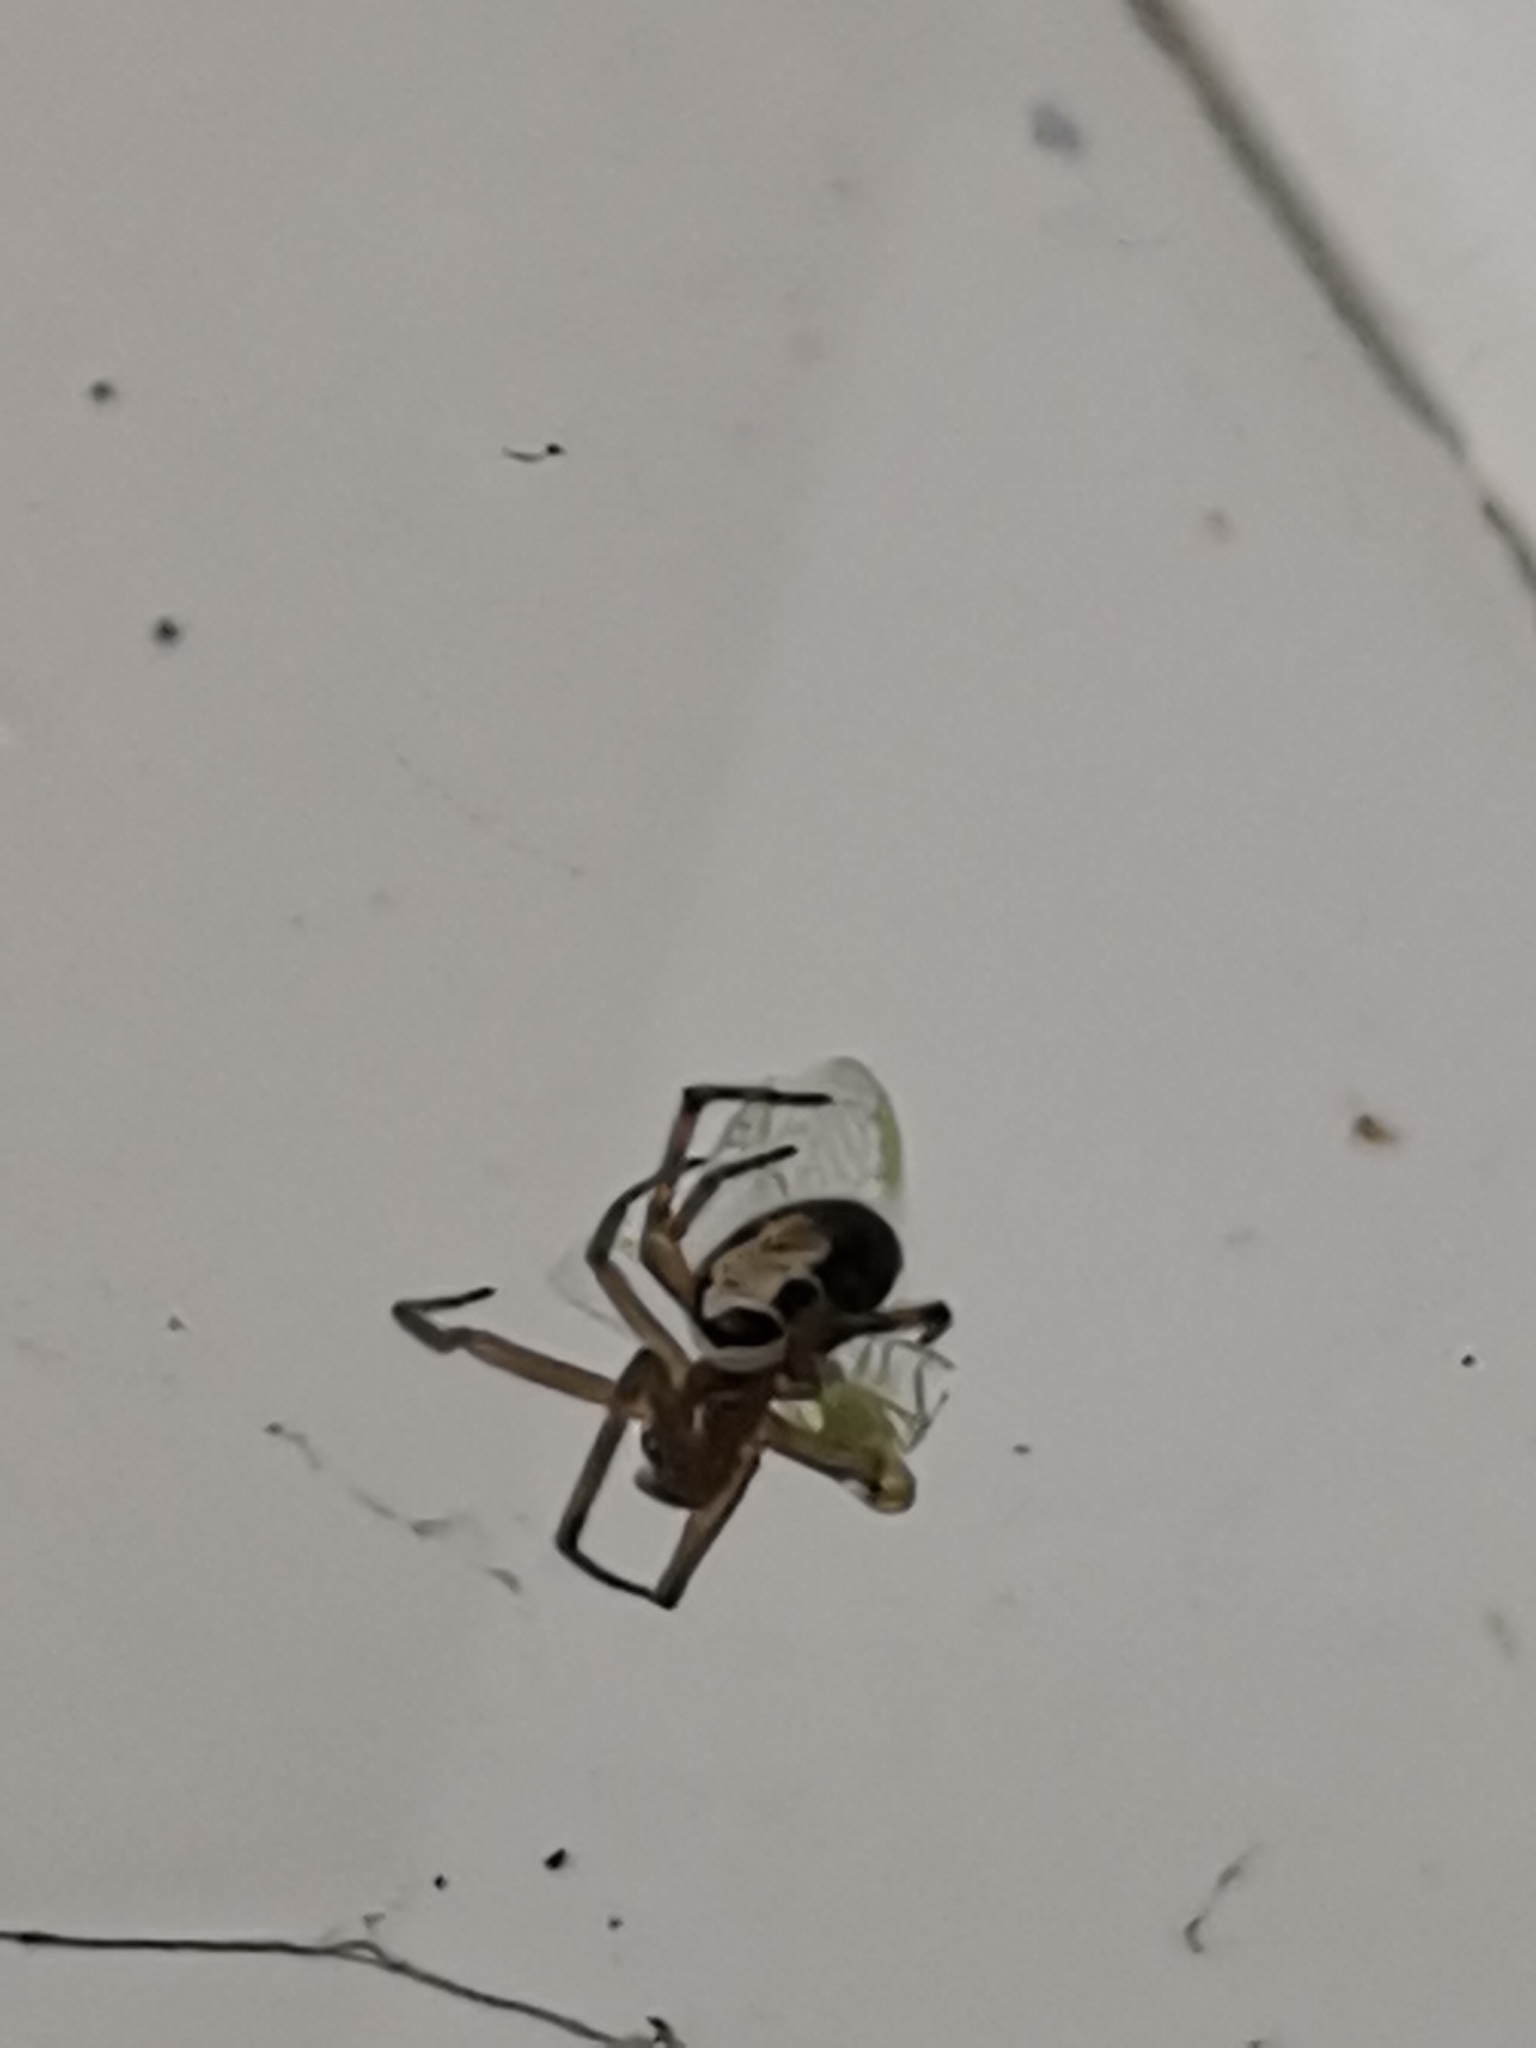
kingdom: Animalia
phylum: Arthropoda
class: Arachnida
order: Araneae
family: Theridiidae
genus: Steatoda
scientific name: Steatoda nobilis
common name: Cobweb weaver
